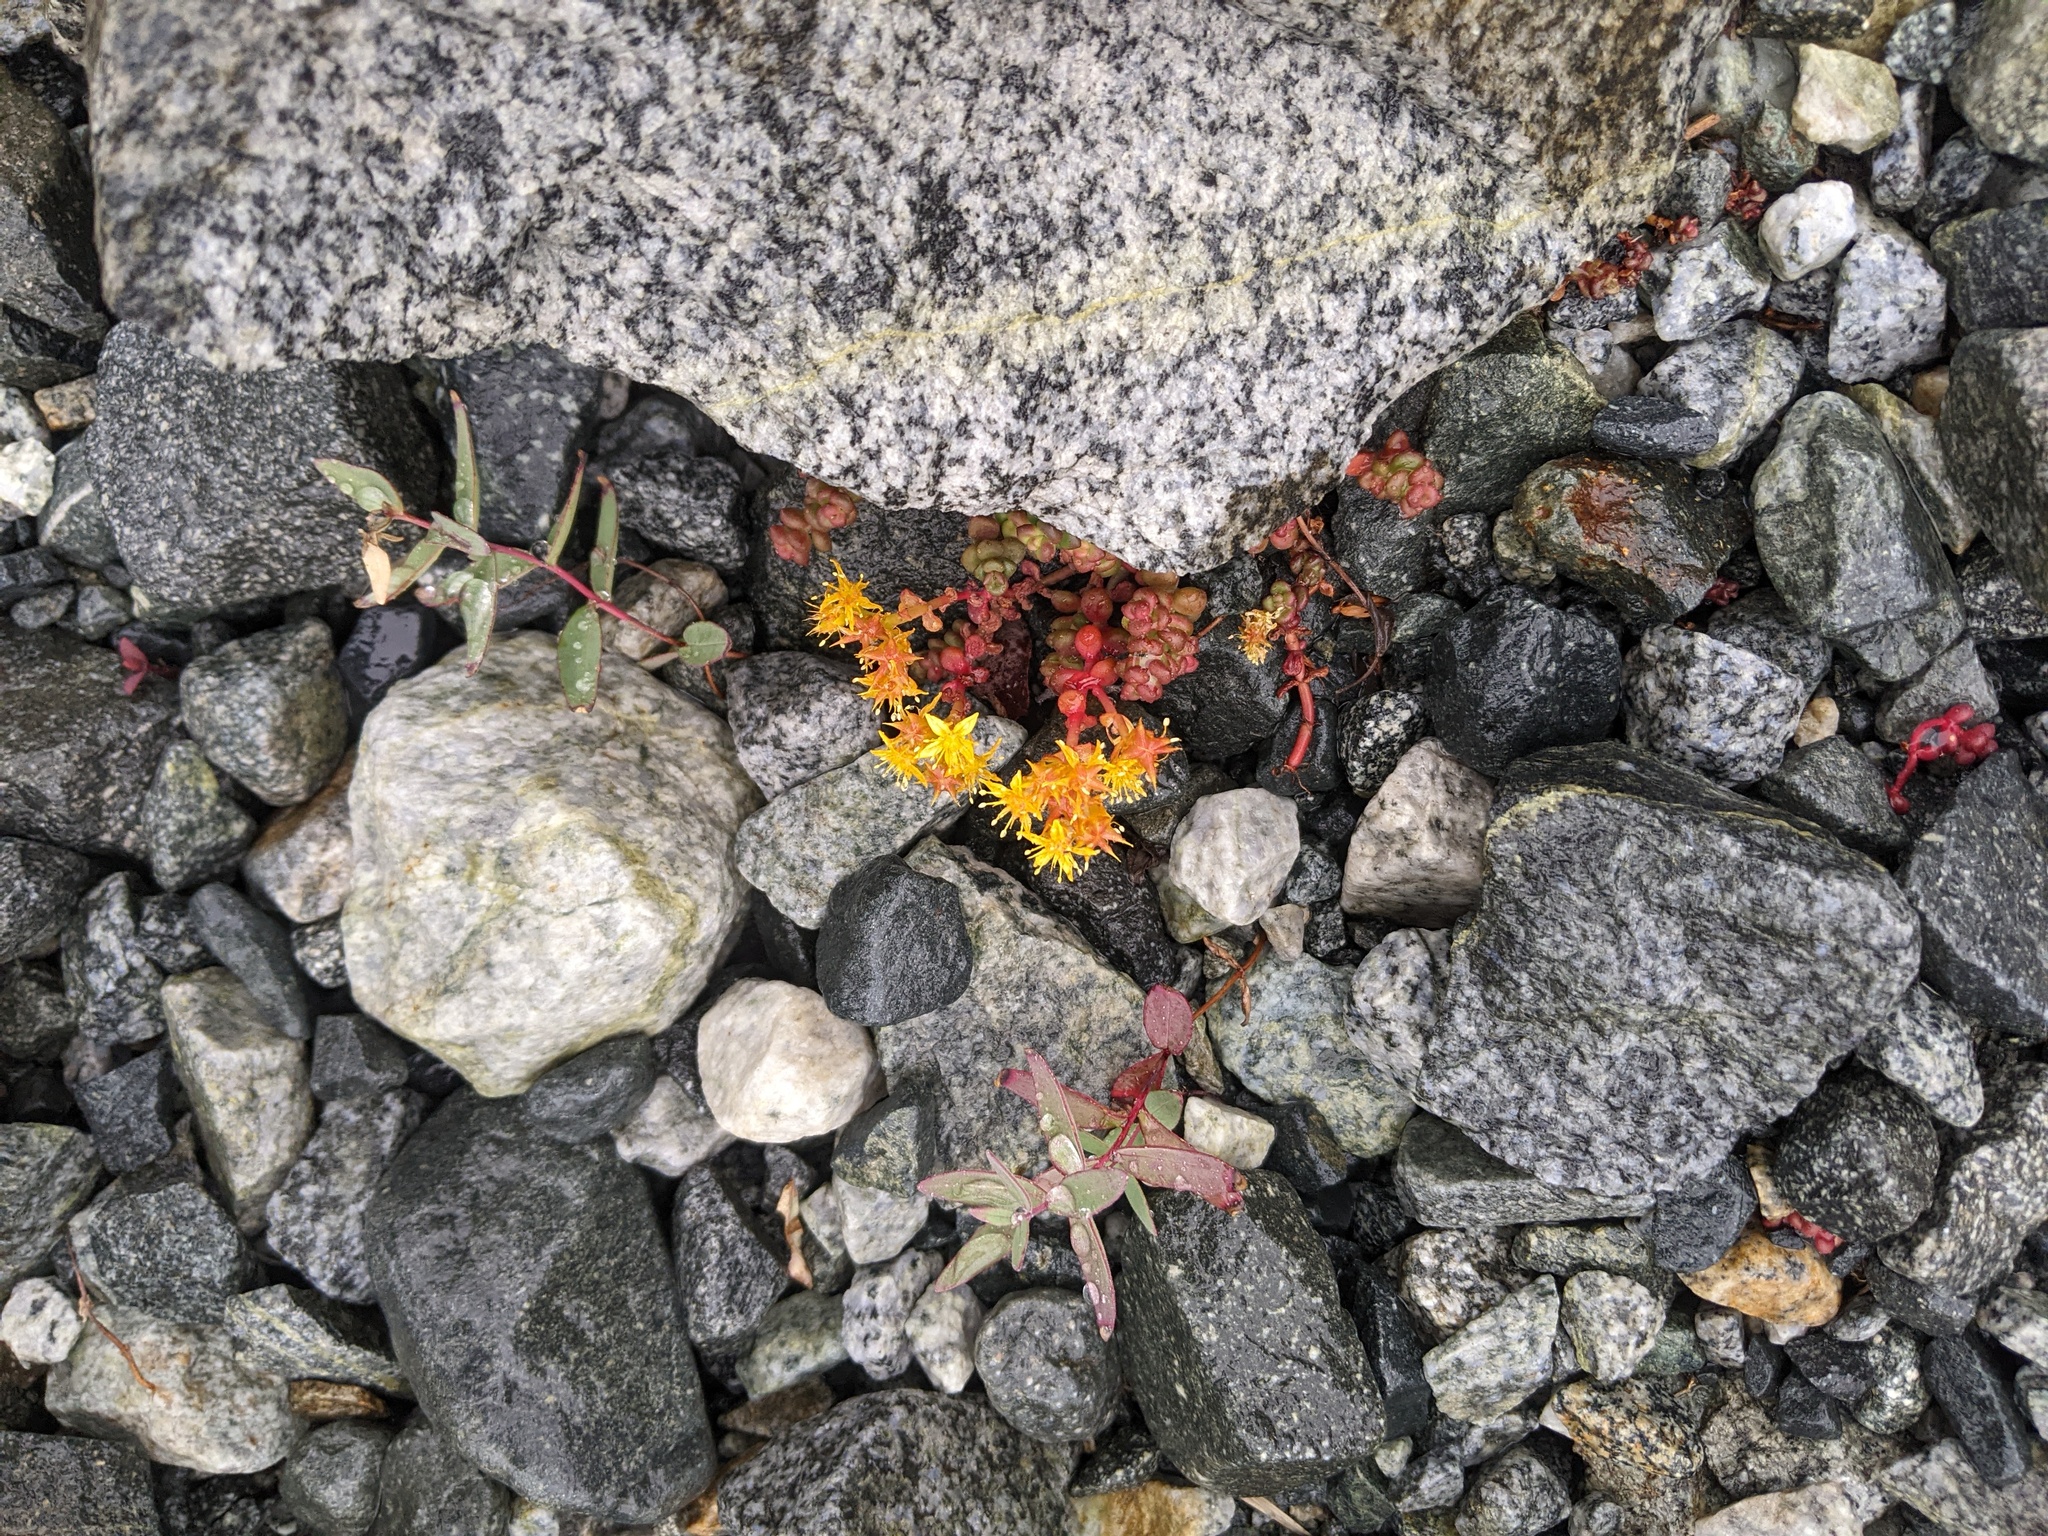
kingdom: Plantae
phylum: Tracheophyta
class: Magnoliopsida
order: Saxifragales
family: Crassulaceae
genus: Sedum
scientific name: Sedum divergens
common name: Cascade stonecrop
